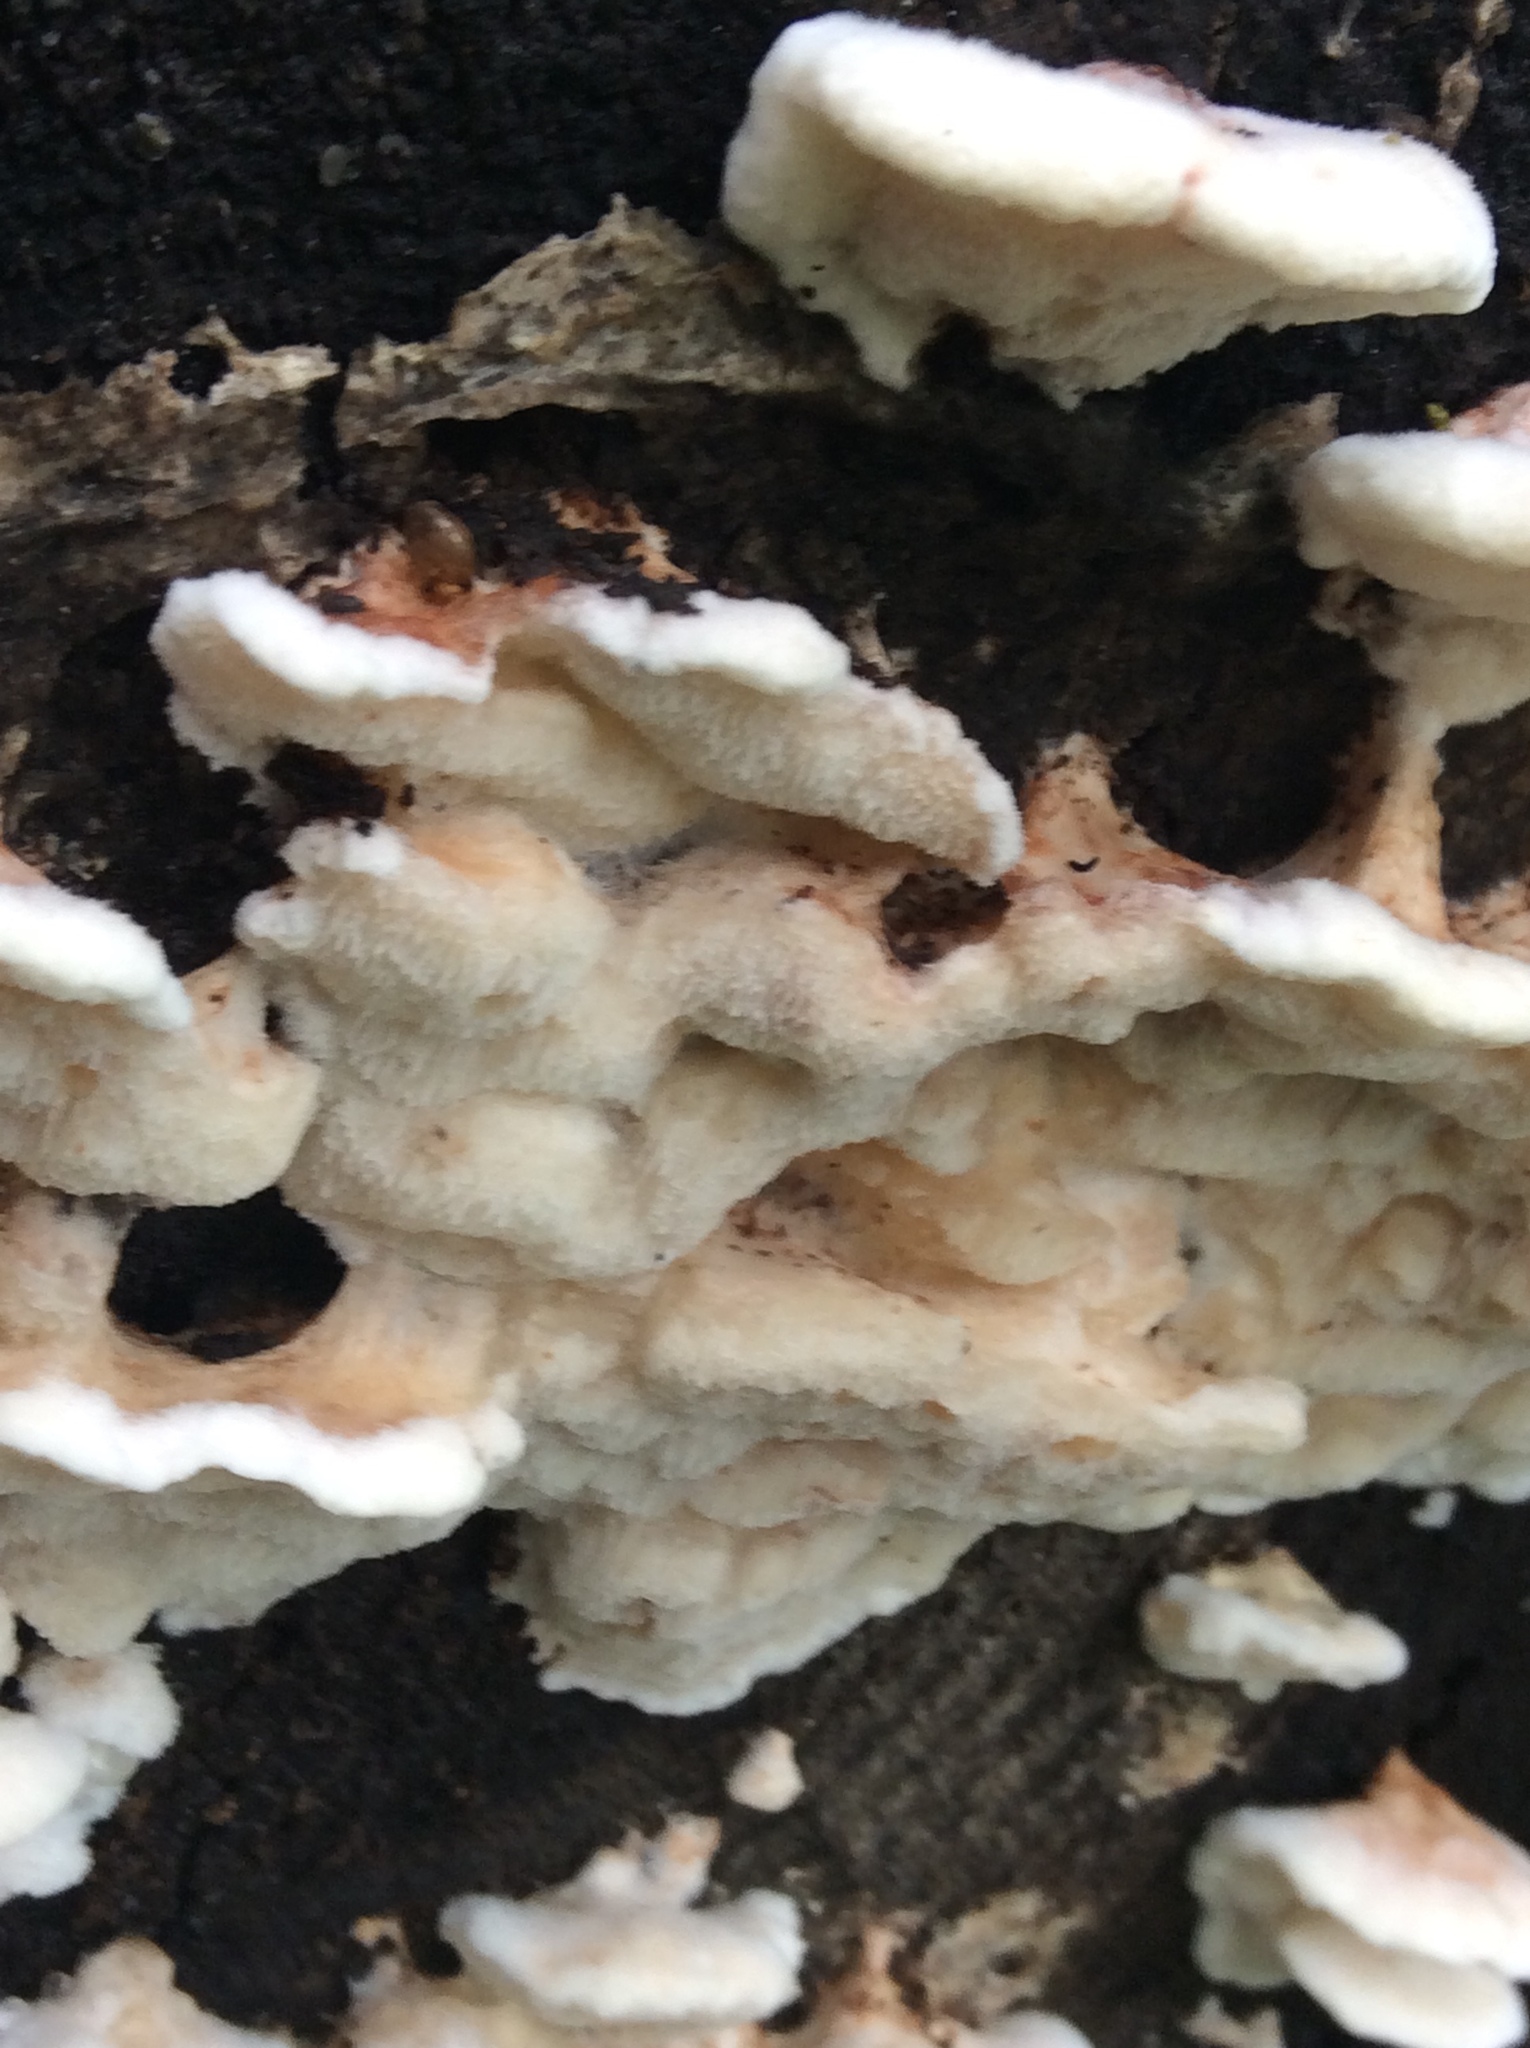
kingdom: Fungi
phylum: Basidiomycota
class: Agaricomycetes
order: Polyporales
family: Meruliaceae
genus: Phlebia
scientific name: Phlebia tremellosa
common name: Jelly rot
